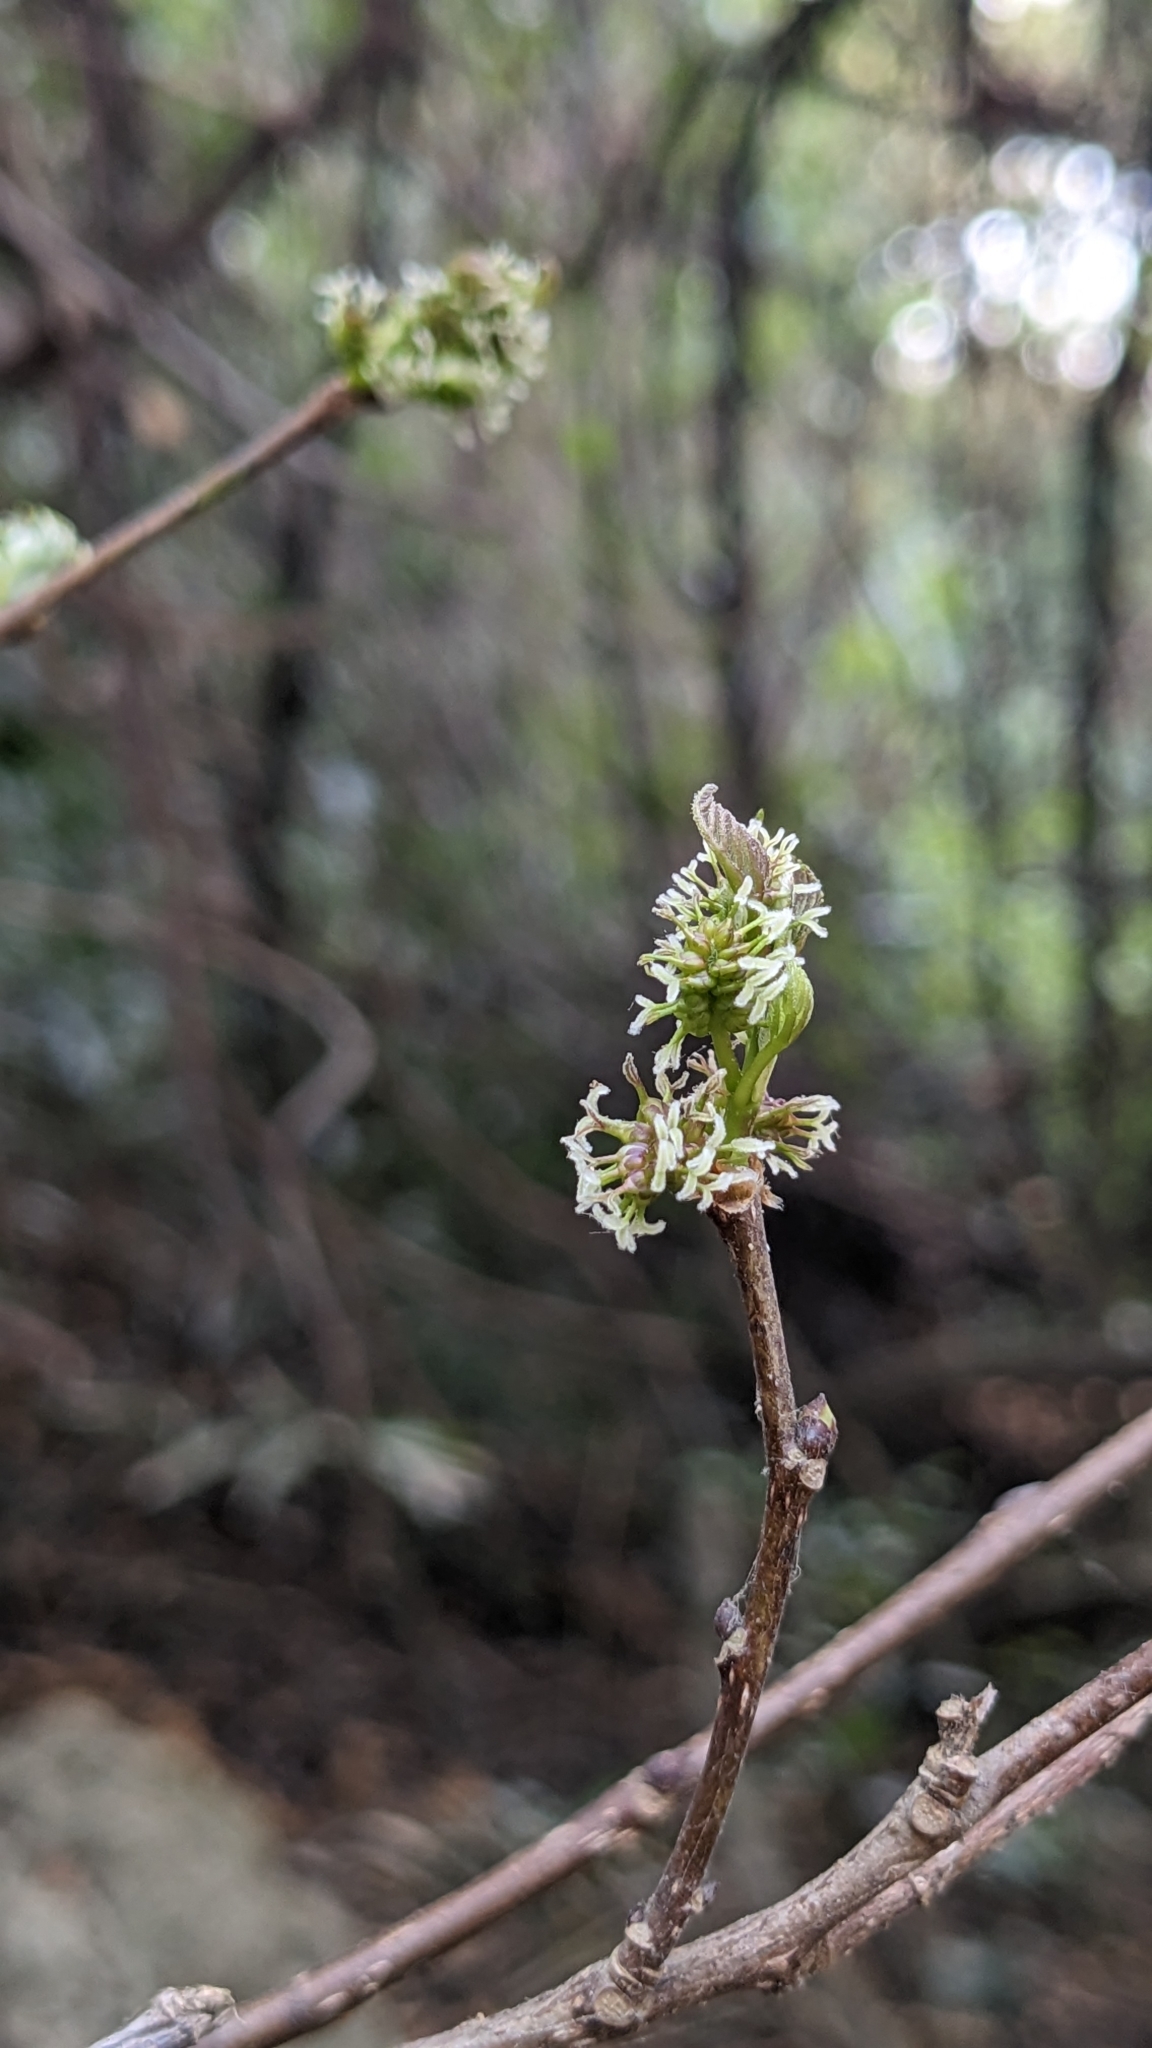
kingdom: Plantae
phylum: Tracheophyta
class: Magnoliopsida
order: Rosales
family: Moraceae
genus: Morus
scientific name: Morus indica
